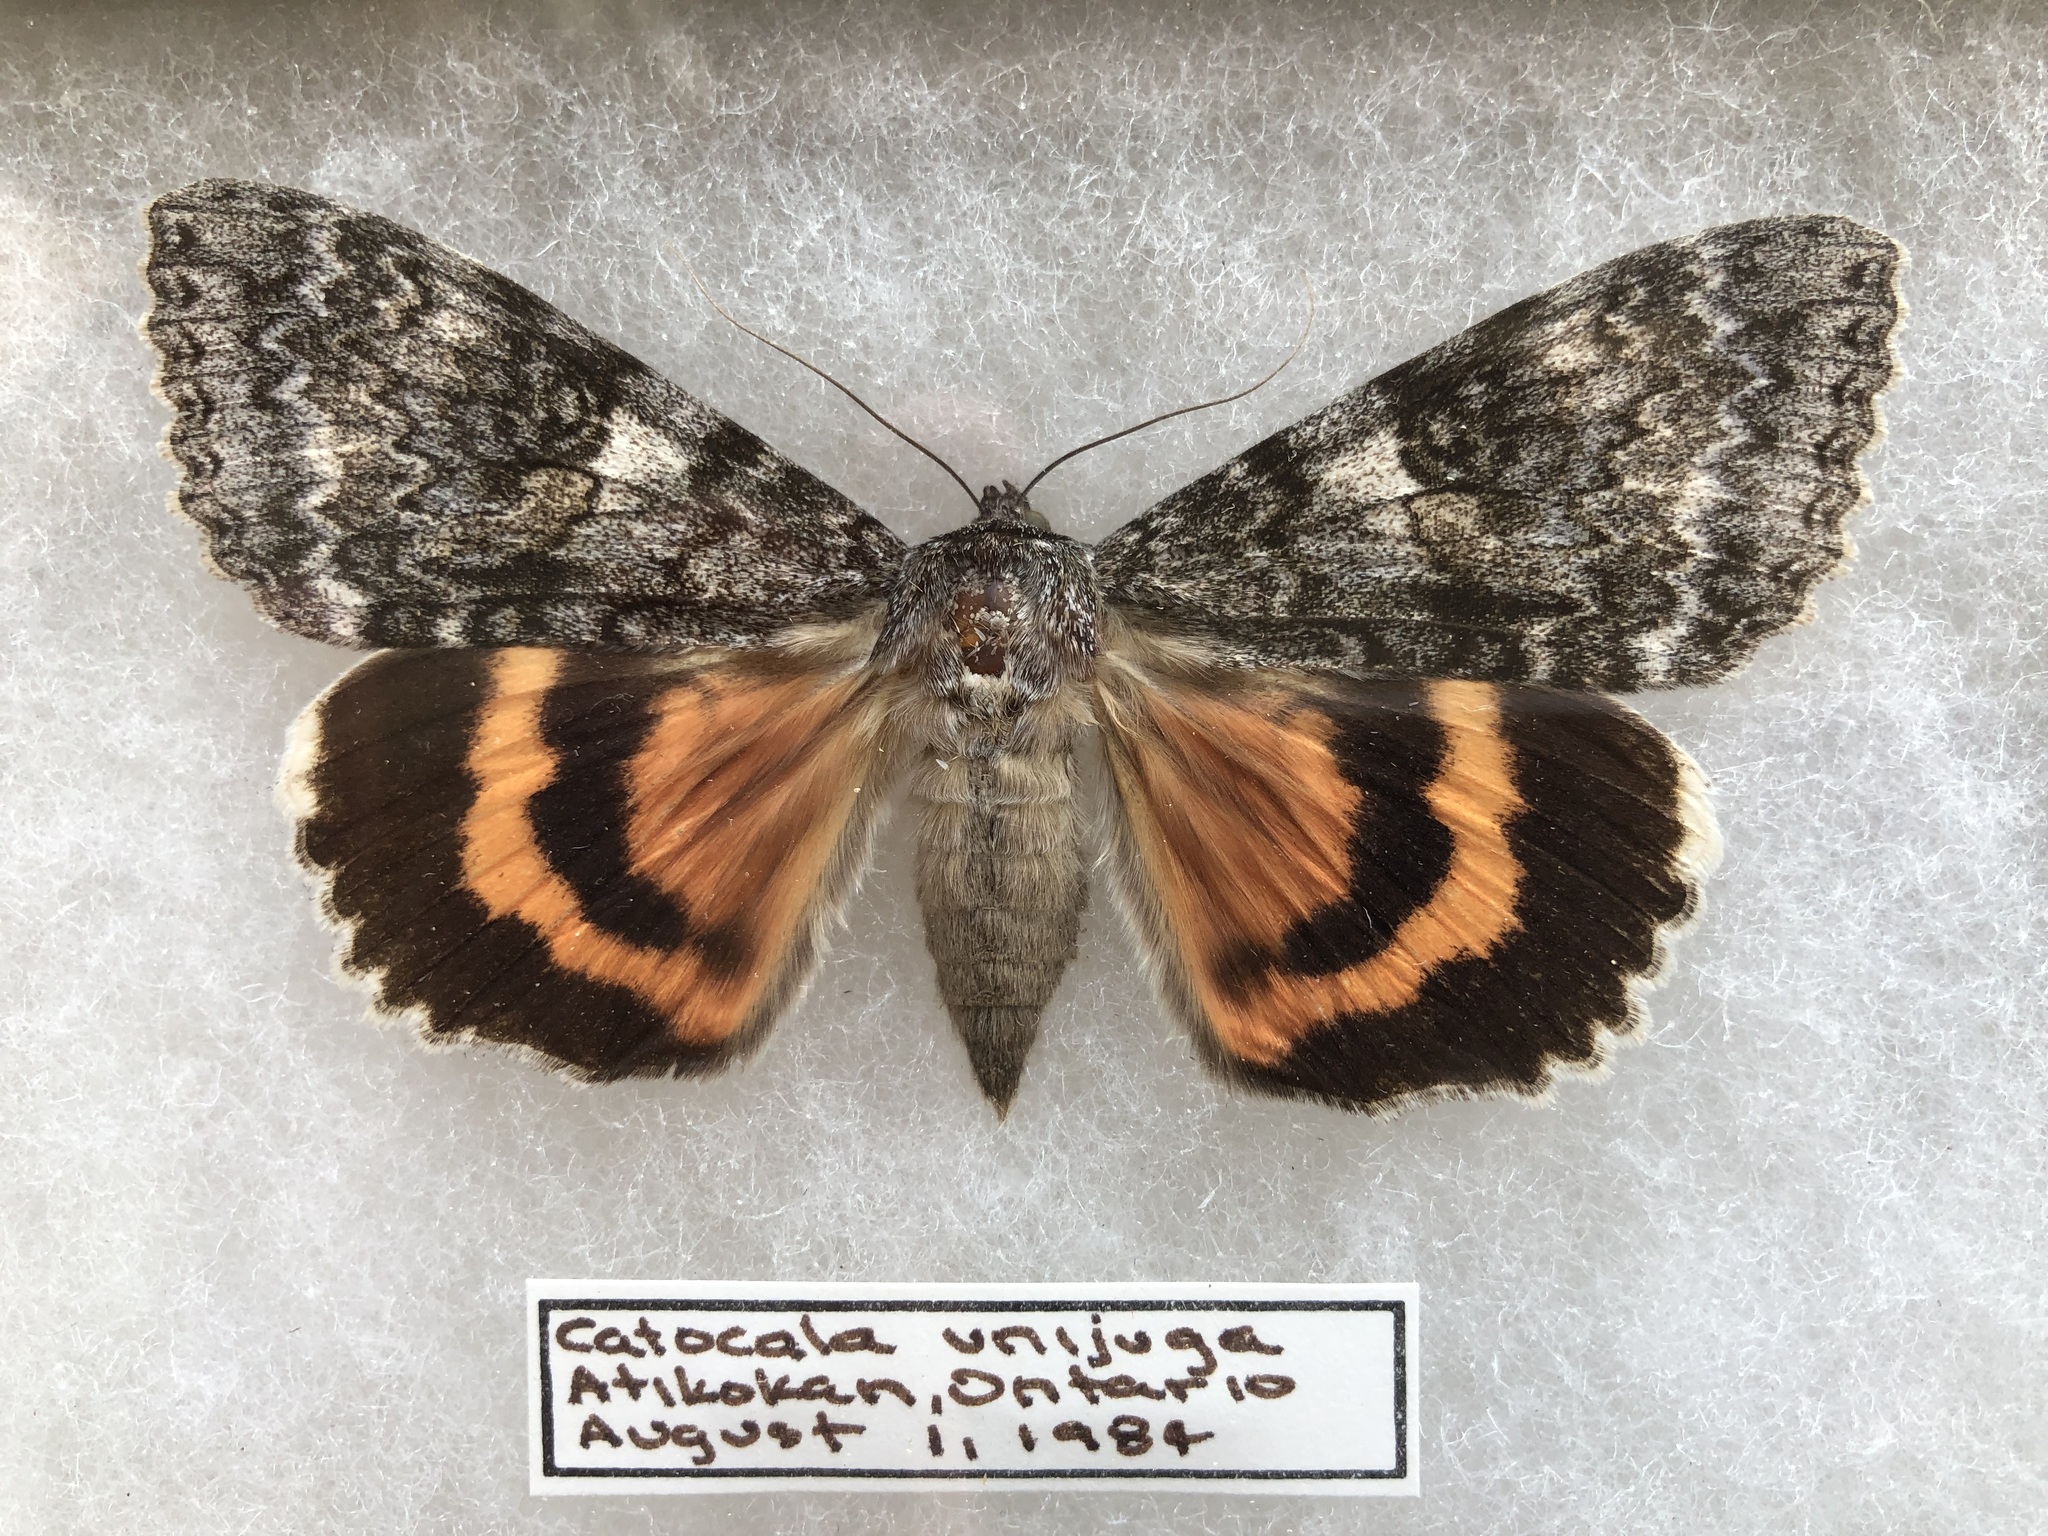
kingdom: Animalia
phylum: Arthropoda
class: Insecta
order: Lepidoptera
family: Erebidae
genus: Catocala
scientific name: Catocala unijuga
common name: Once-married underwing
